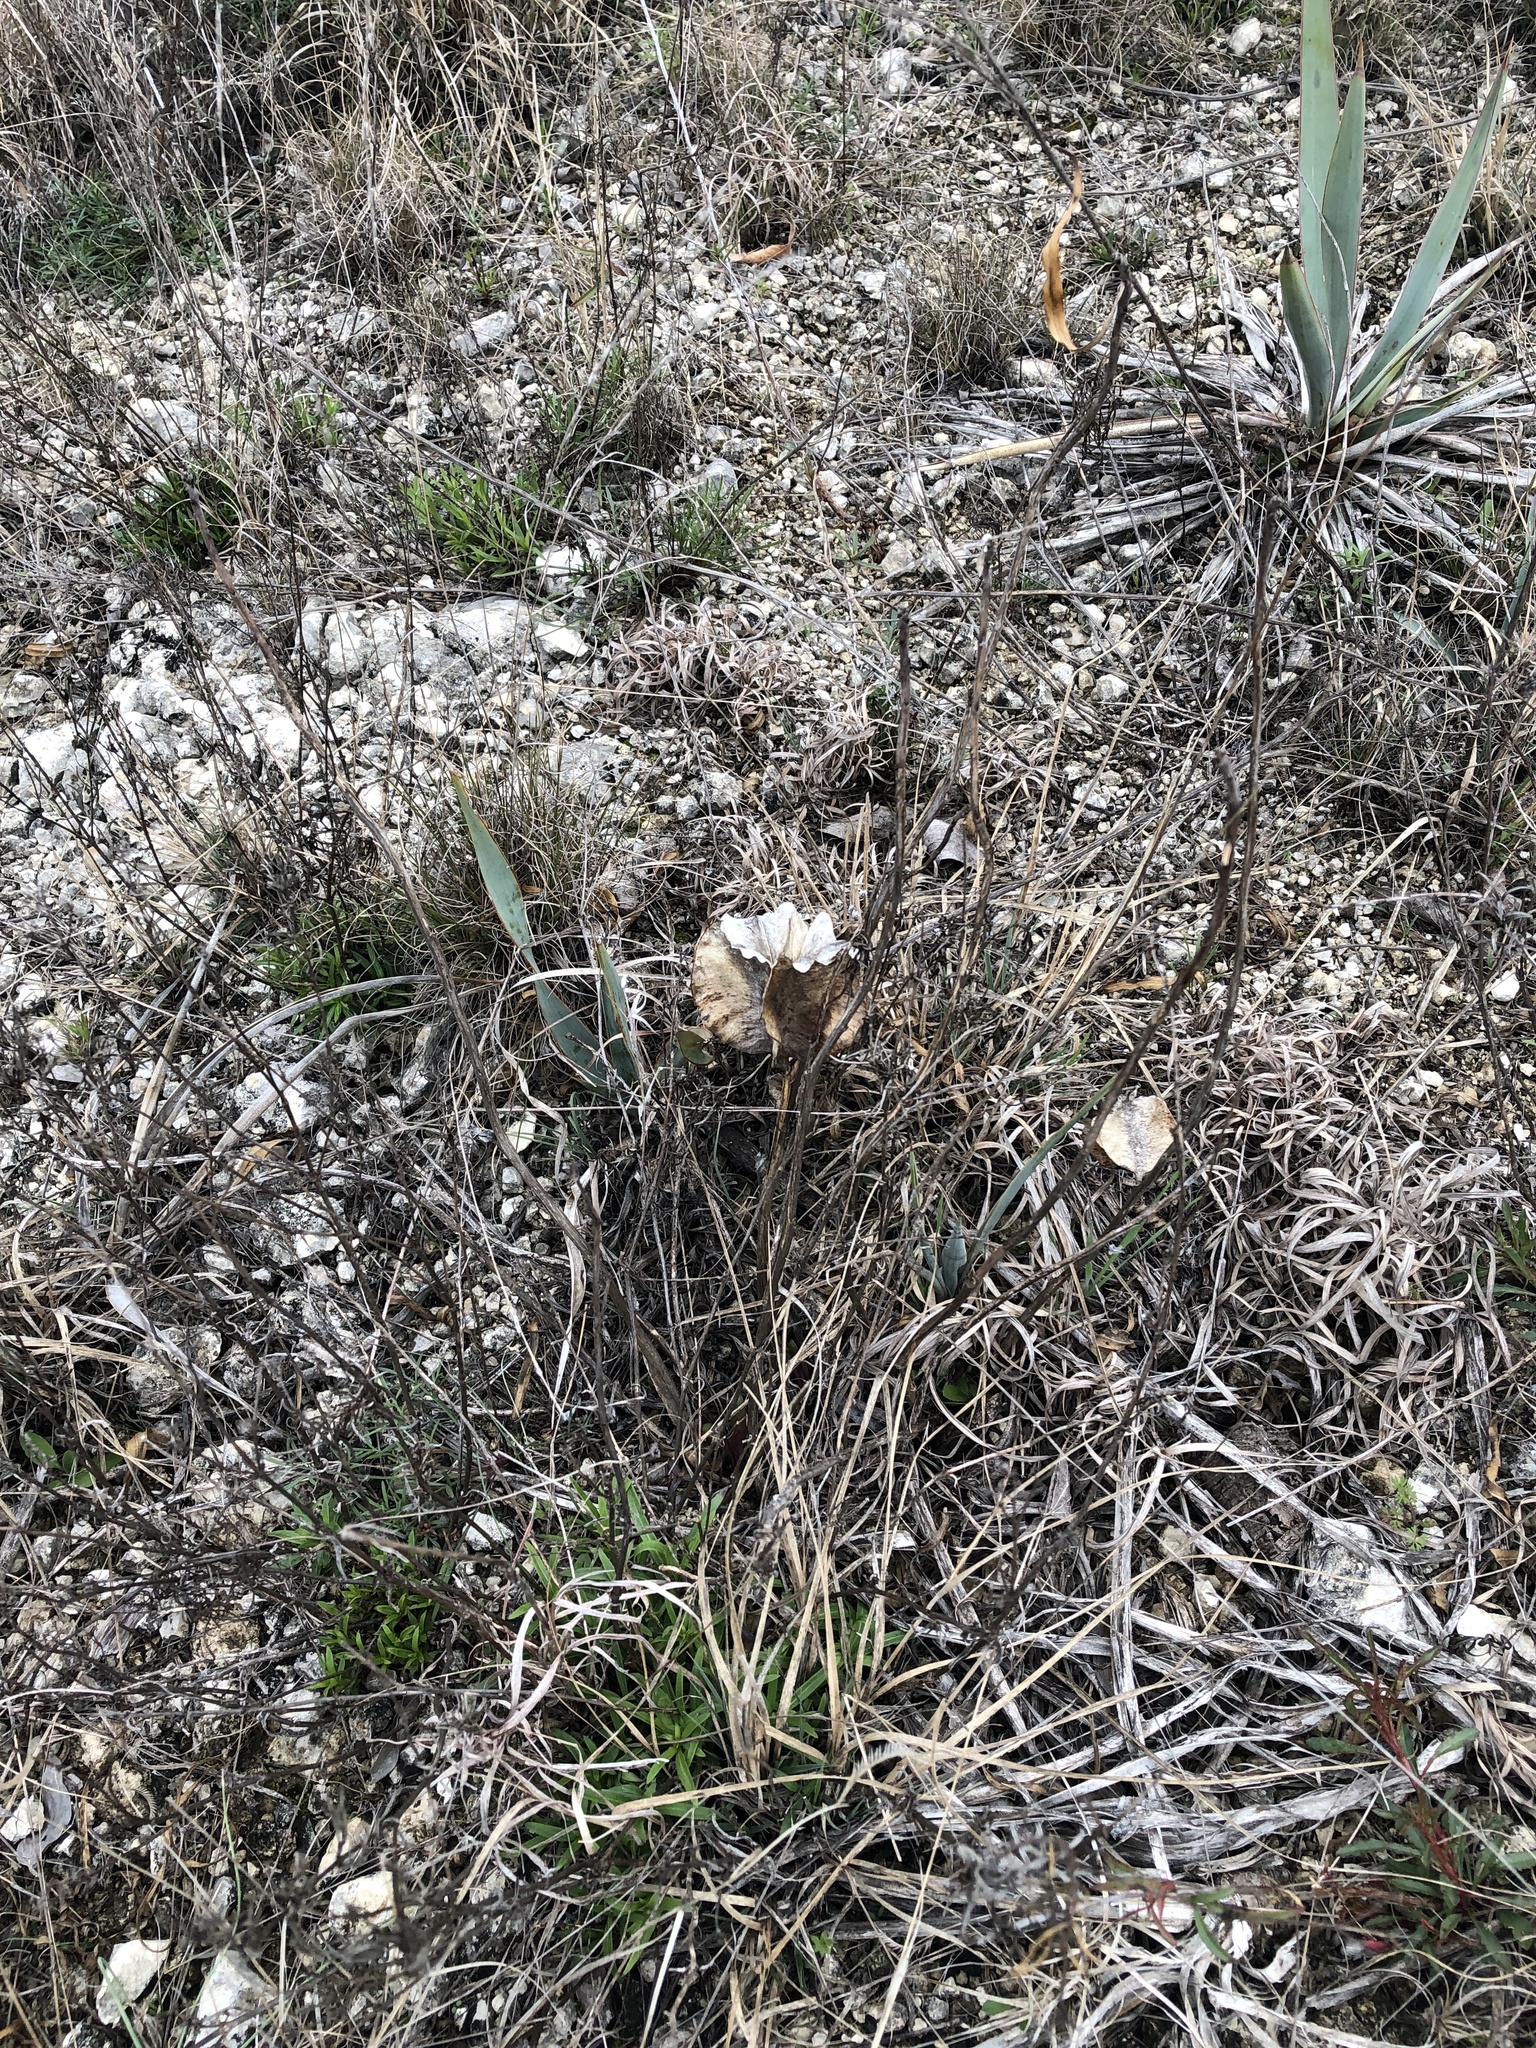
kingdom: Plantae
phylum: Tracheophyta
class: Magnoliopsida
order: Myrtales
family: Onagraceae
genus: Oenothera
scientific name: Oenothera macrocarpa
